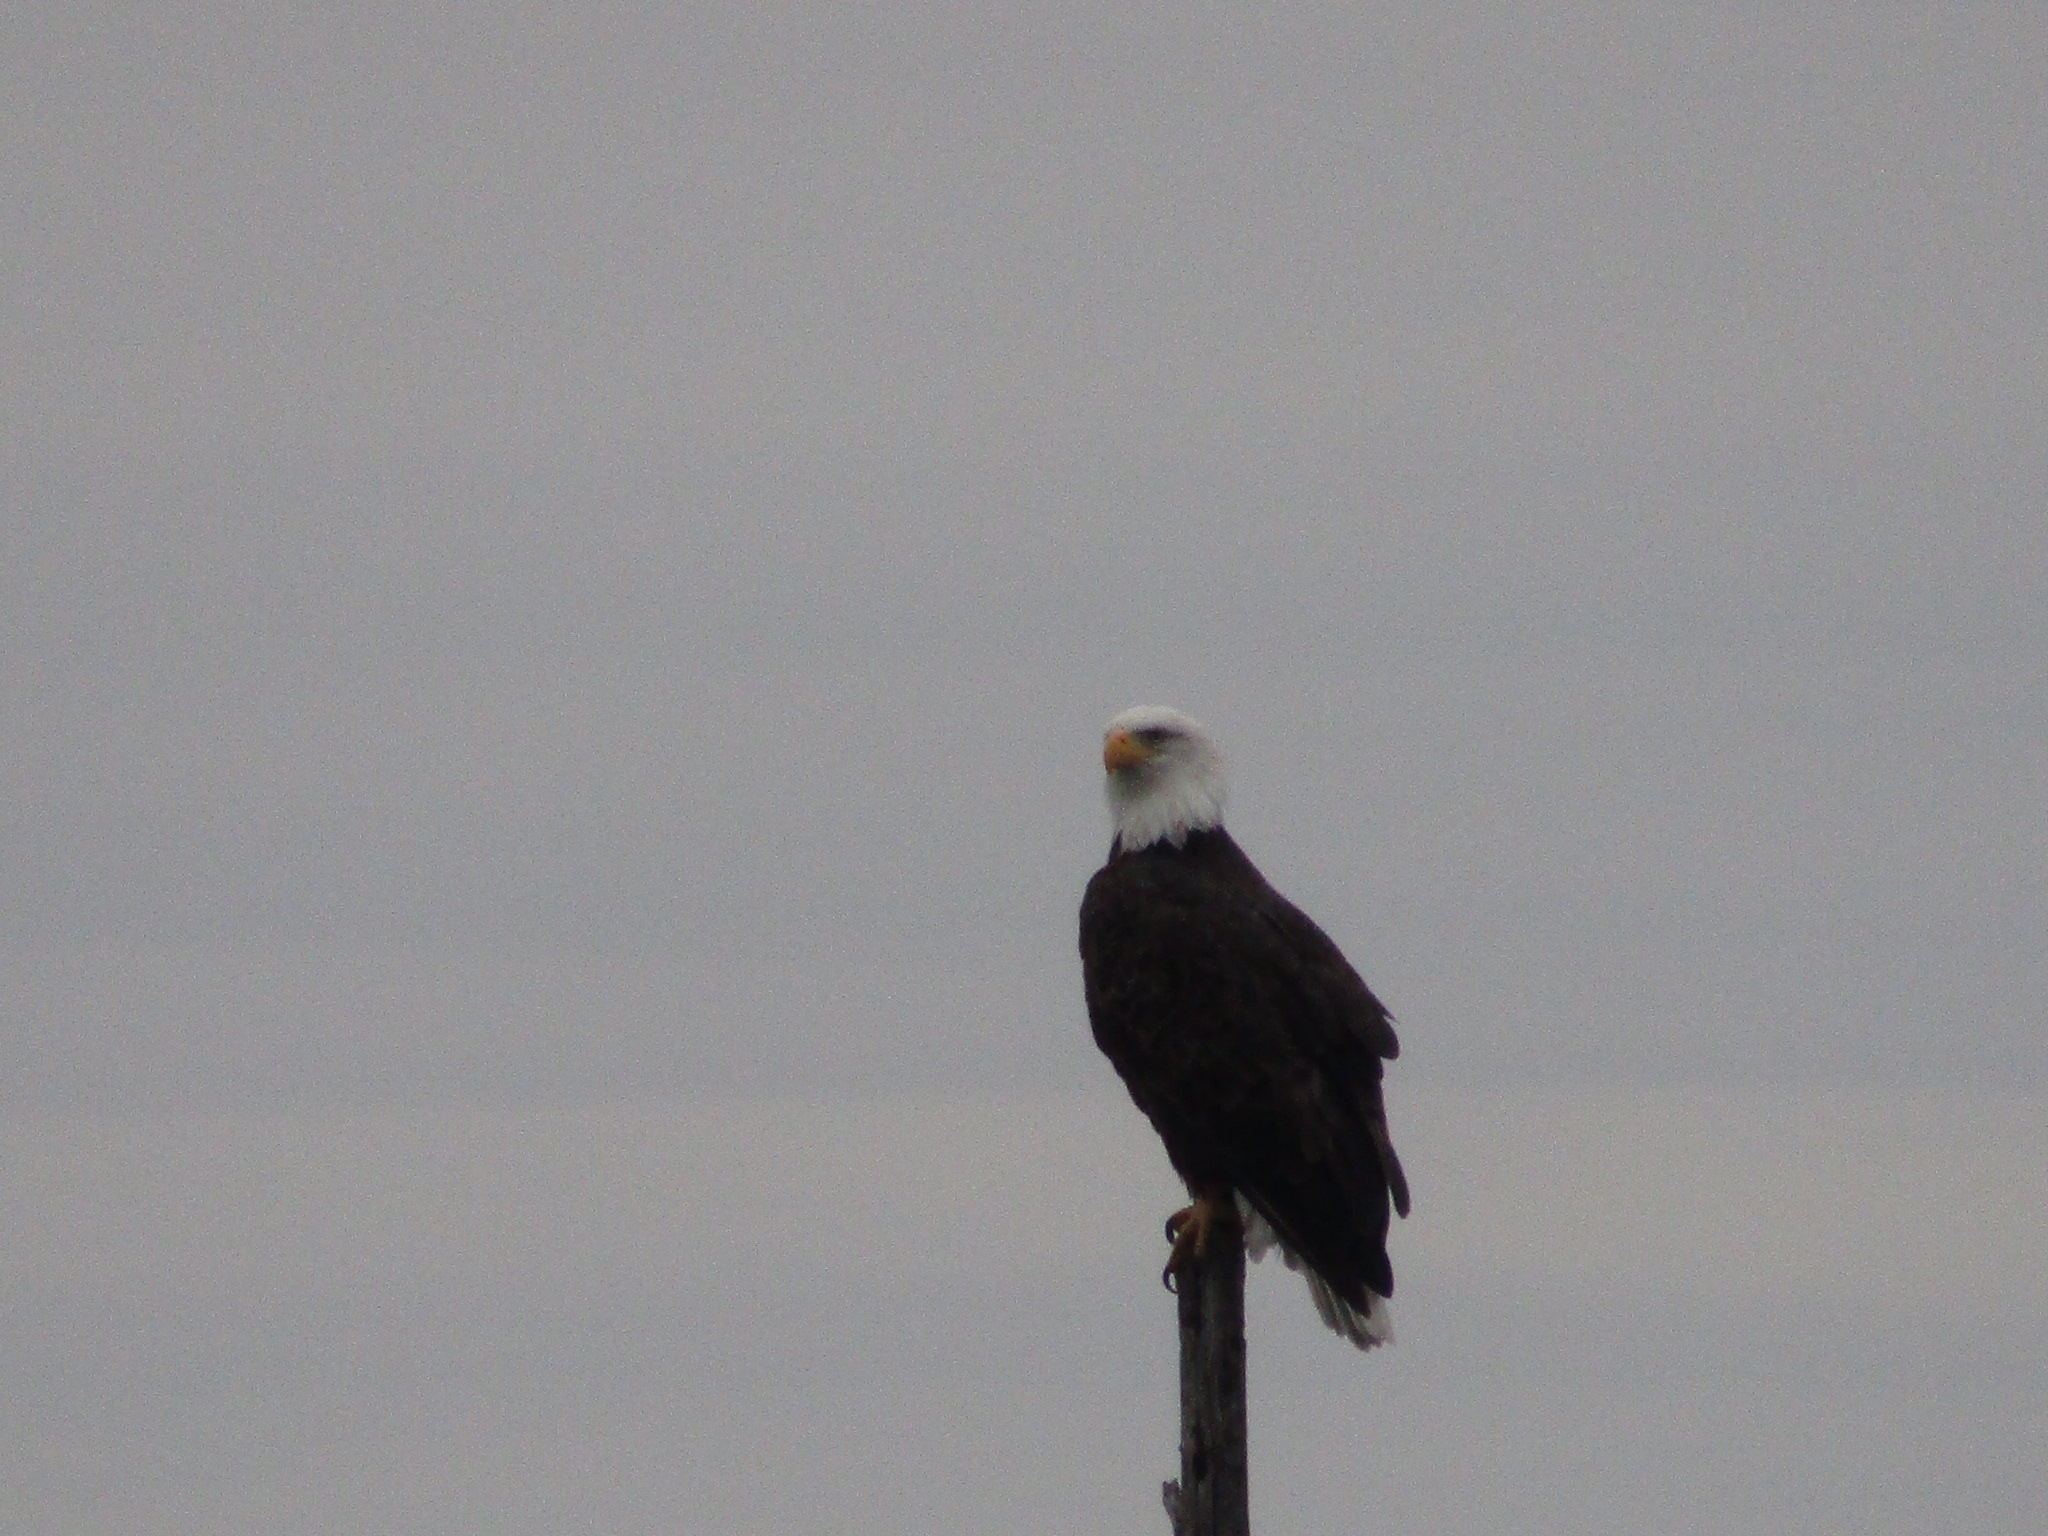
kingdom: Animalia
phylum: Chordata
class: Aves
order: Accipitriformes
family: Accipitridae
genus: Haliaeetus
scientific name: Haliaeetus leucocephalus
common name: Bald eagle
